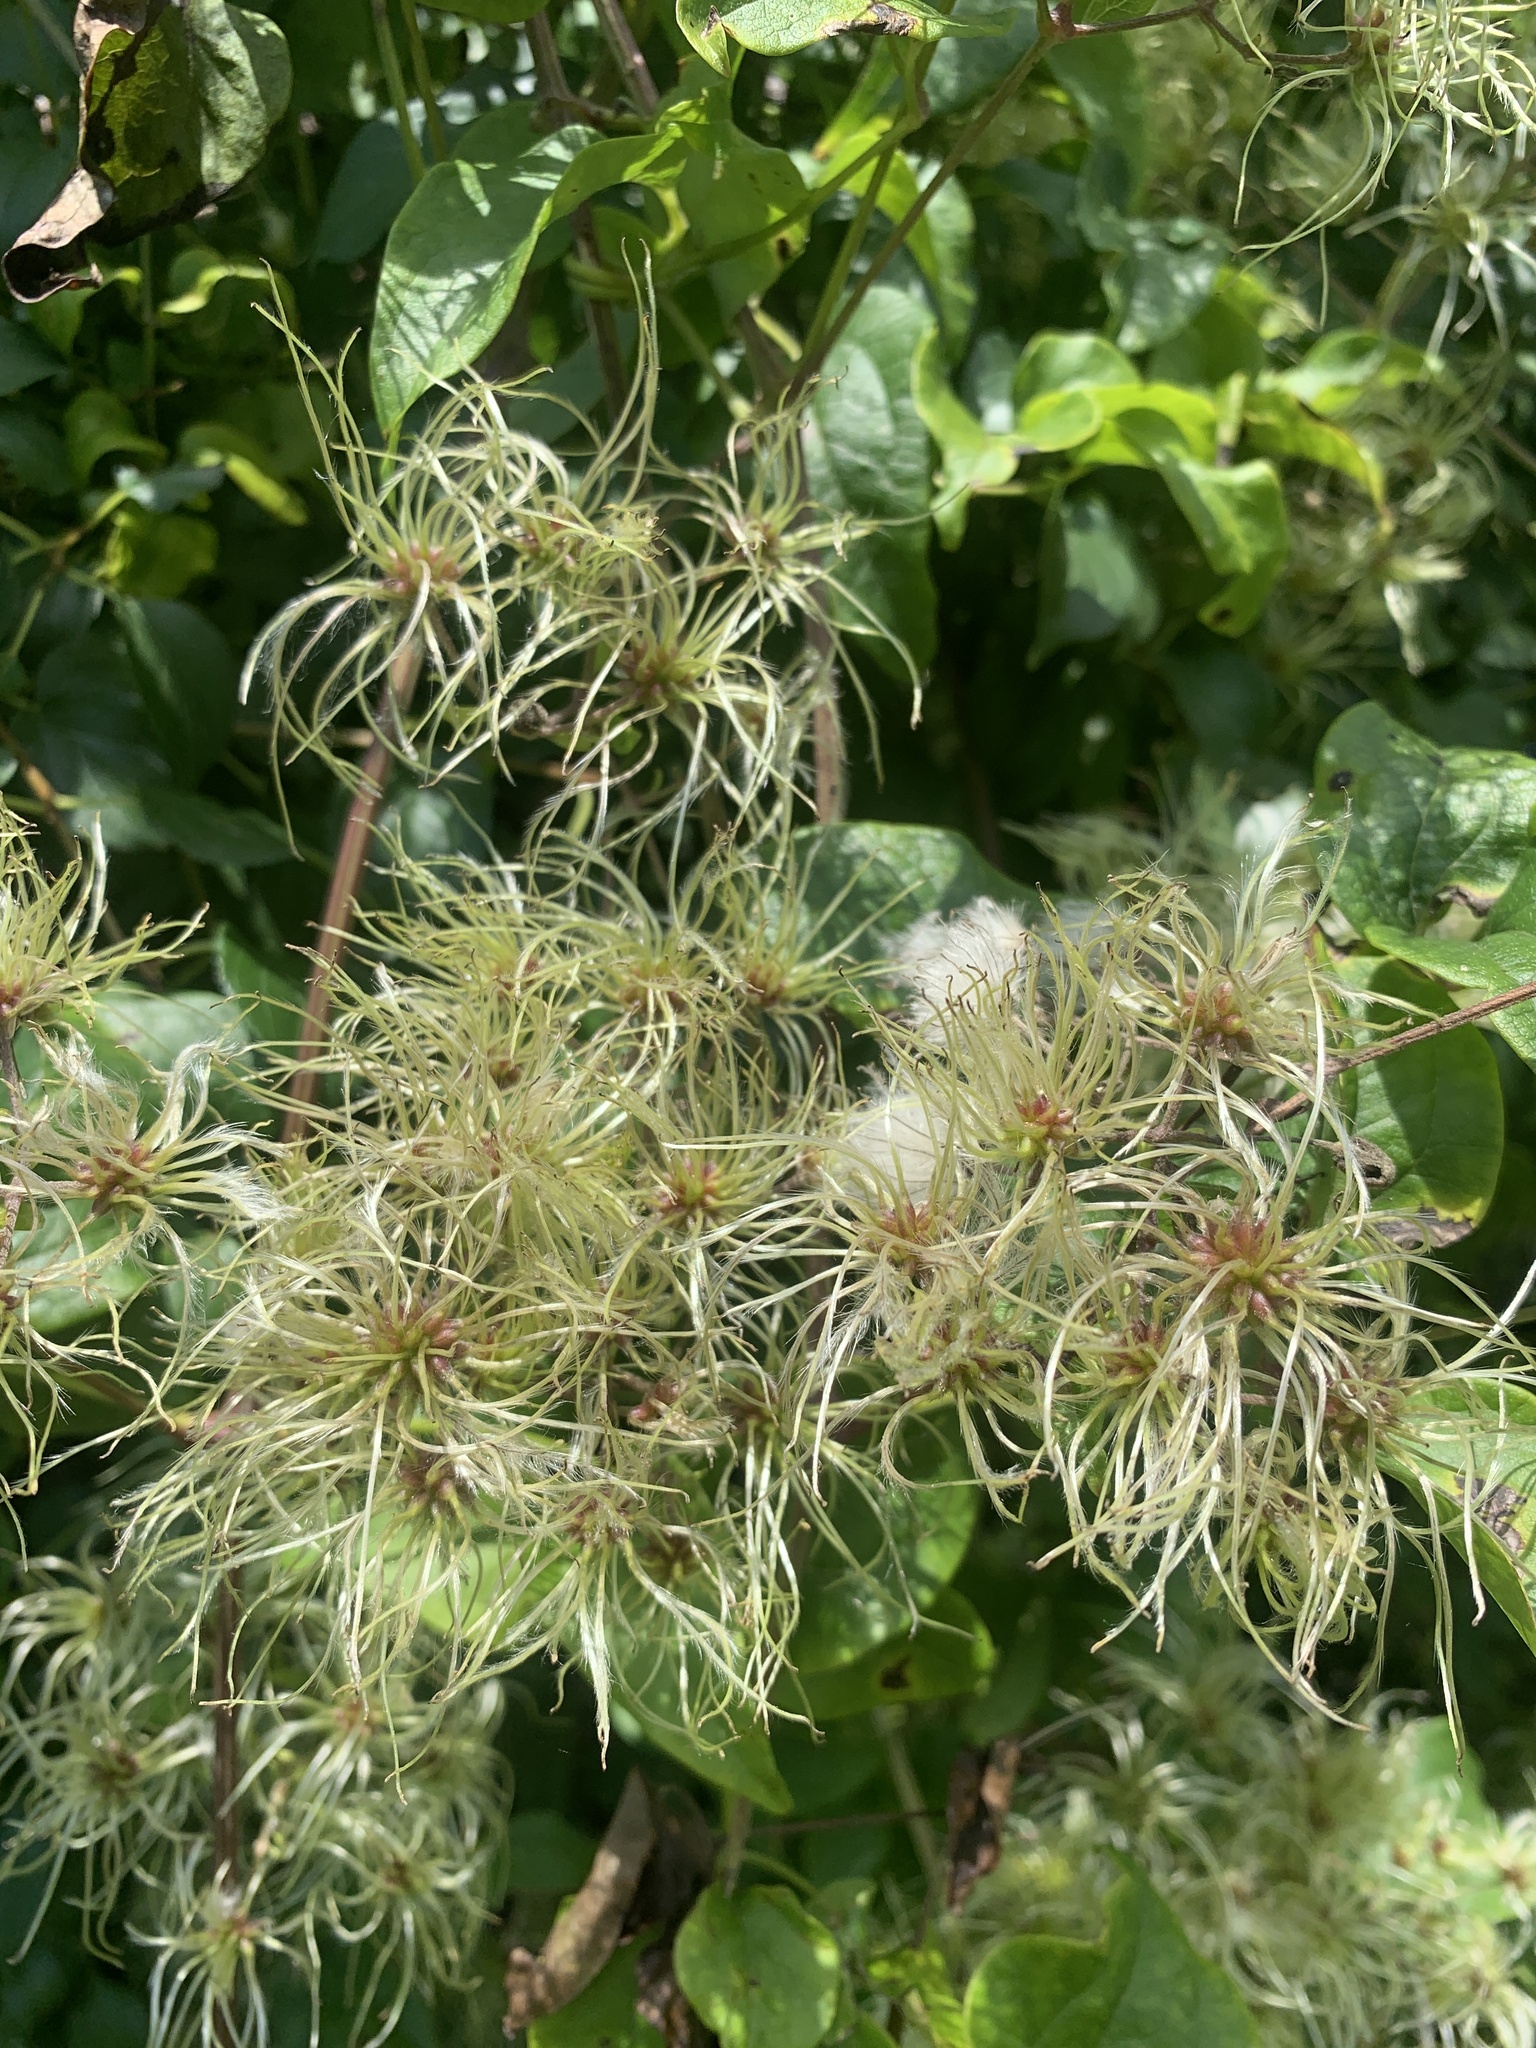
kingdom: Plantae
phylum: Tracheophyta
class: Magnoliopsida
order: Ranunculales
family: Ranunculaceae
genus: Clematis
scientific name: Clematis vitalba
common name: Evergreen clematis
